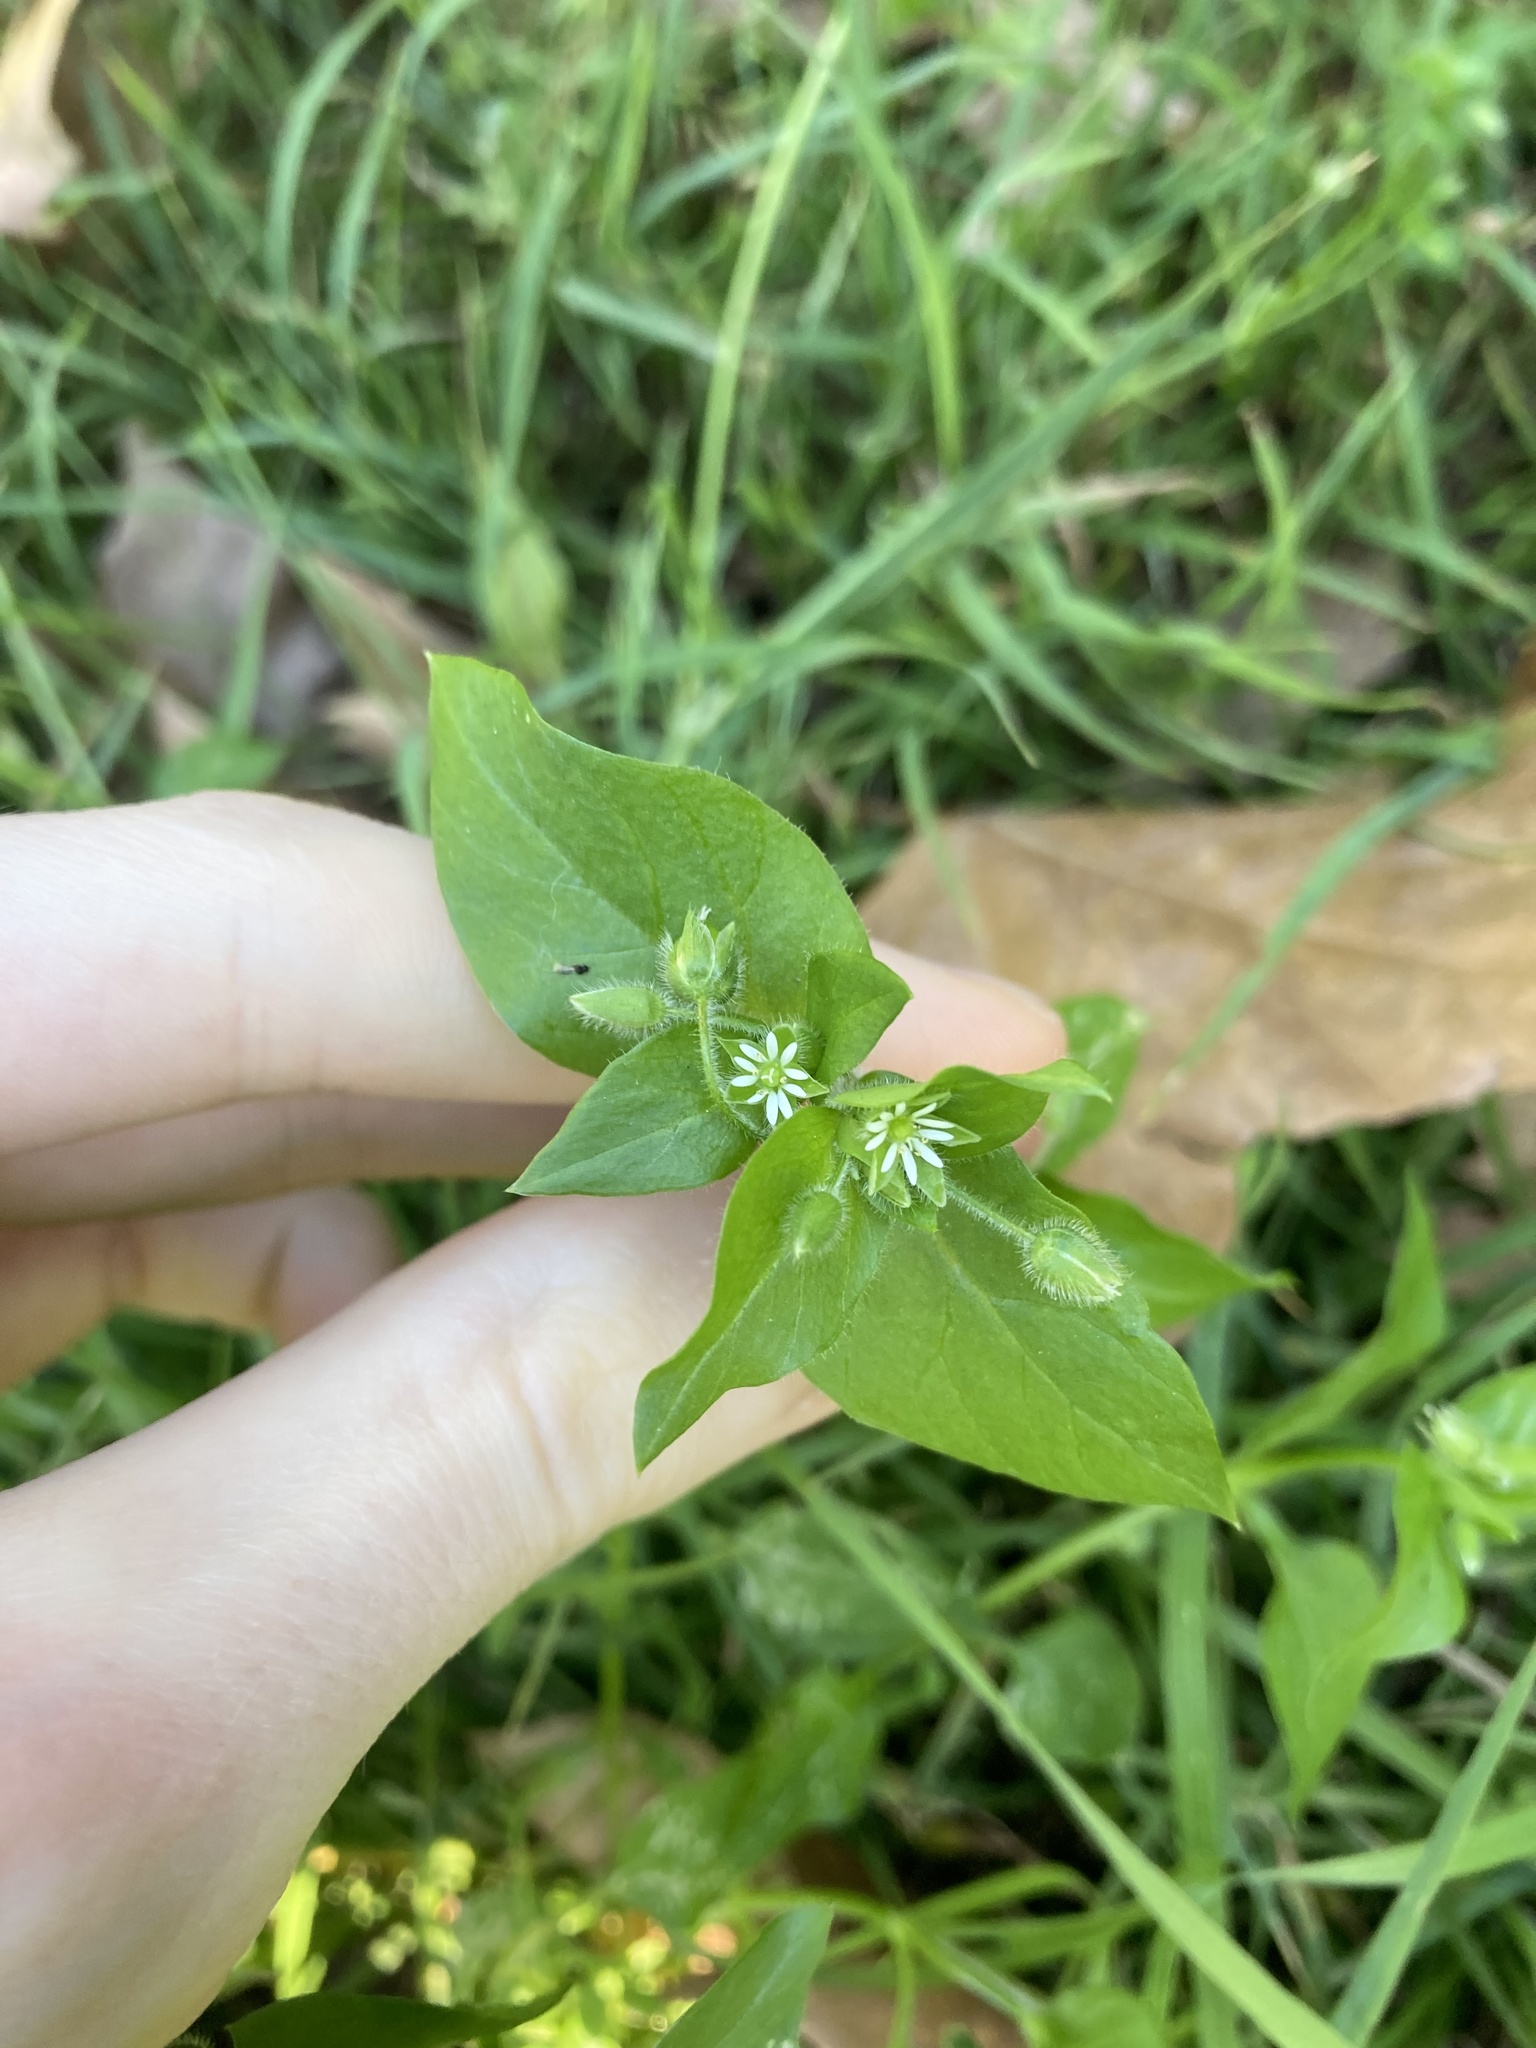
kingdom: Plantae
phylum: Tracheophyta
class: Magnoliopsida
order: Caryophyllales
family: Caryophyllaceae
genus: Stellaria
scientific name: Stellaria media
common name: Common chickweed
